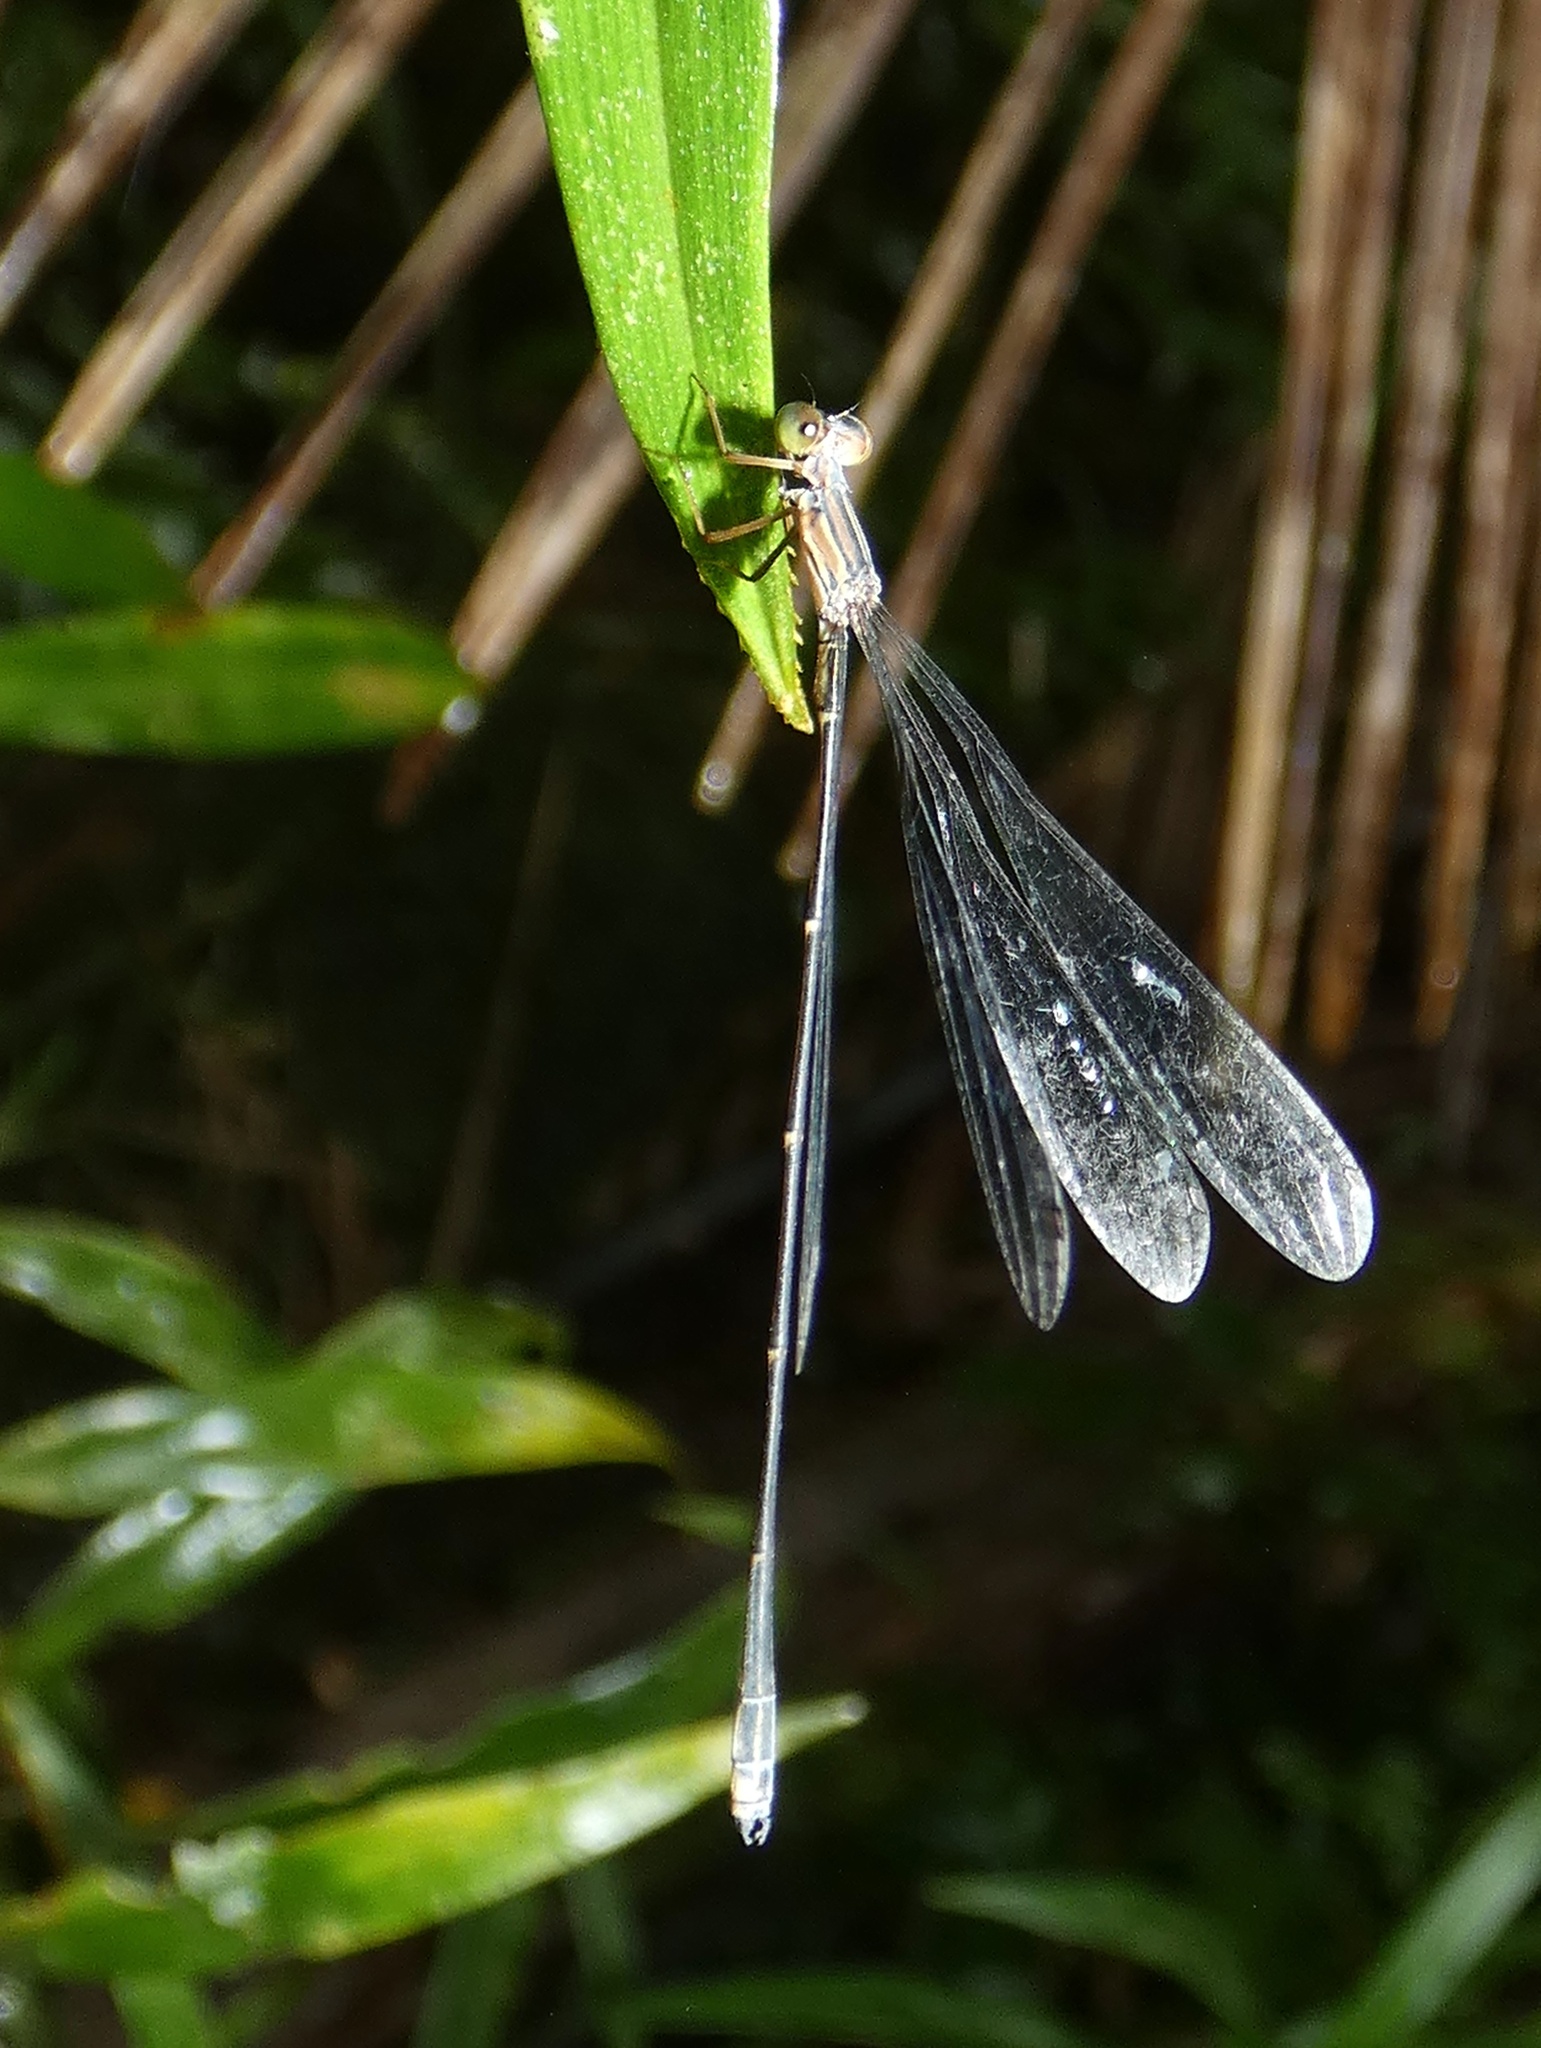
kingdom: Animalia
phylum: Arthropoda
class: Insecta
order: Odonata
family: Isostictidae
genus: Oristicta
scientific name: Oristicta filicicola
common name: Slender wiretail
